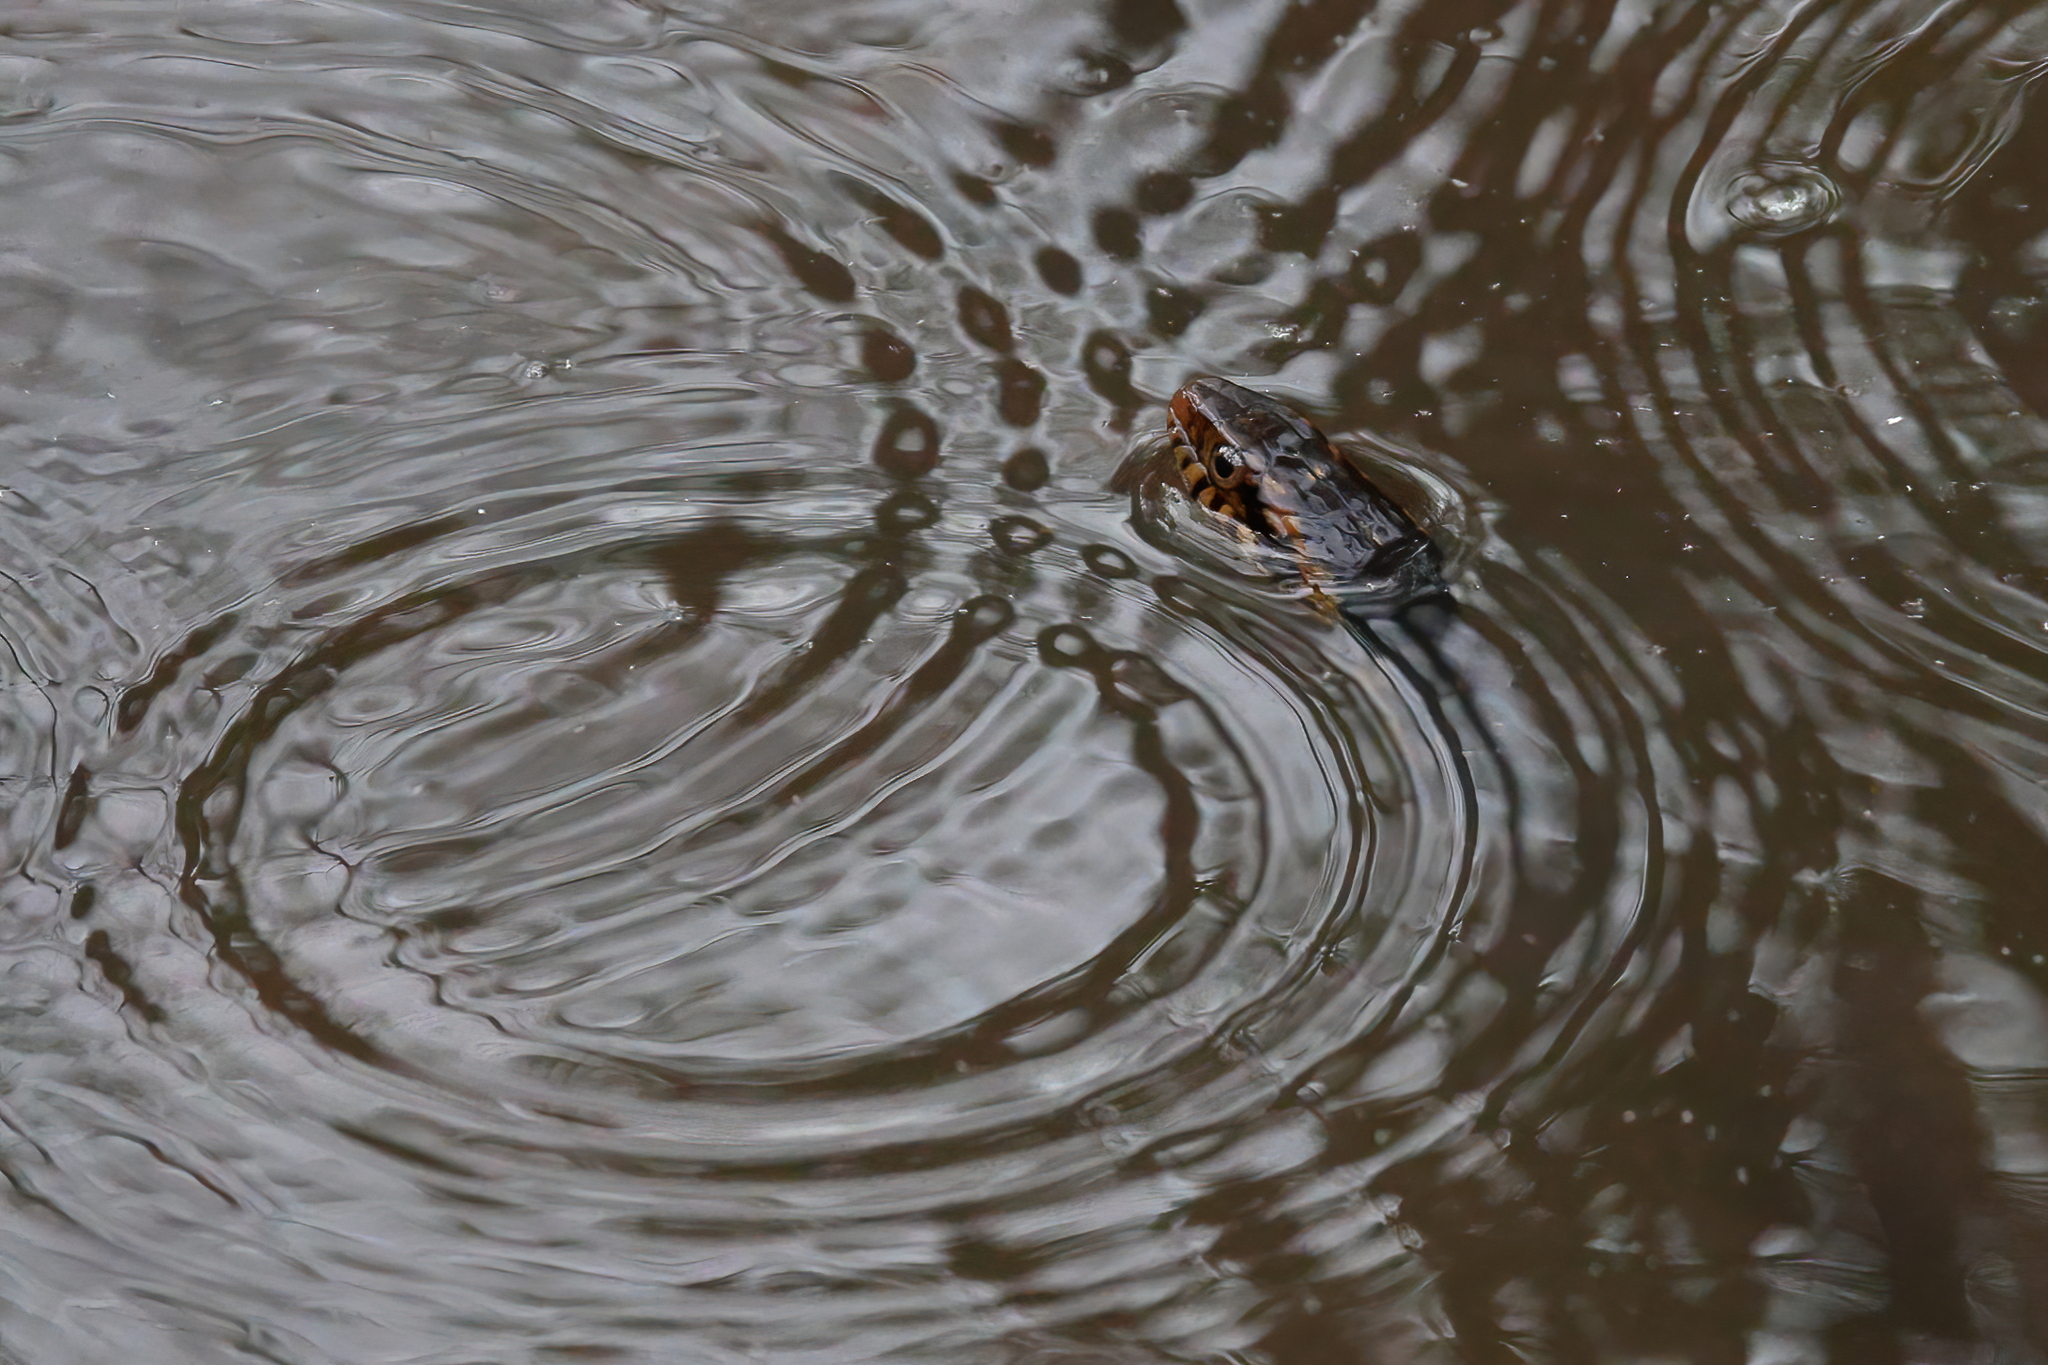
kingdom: Animalia
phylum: Chordata
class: Squamata
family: Colubridae
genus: Nerodia
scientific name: Nerodia fasciata
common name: Southern water snake
